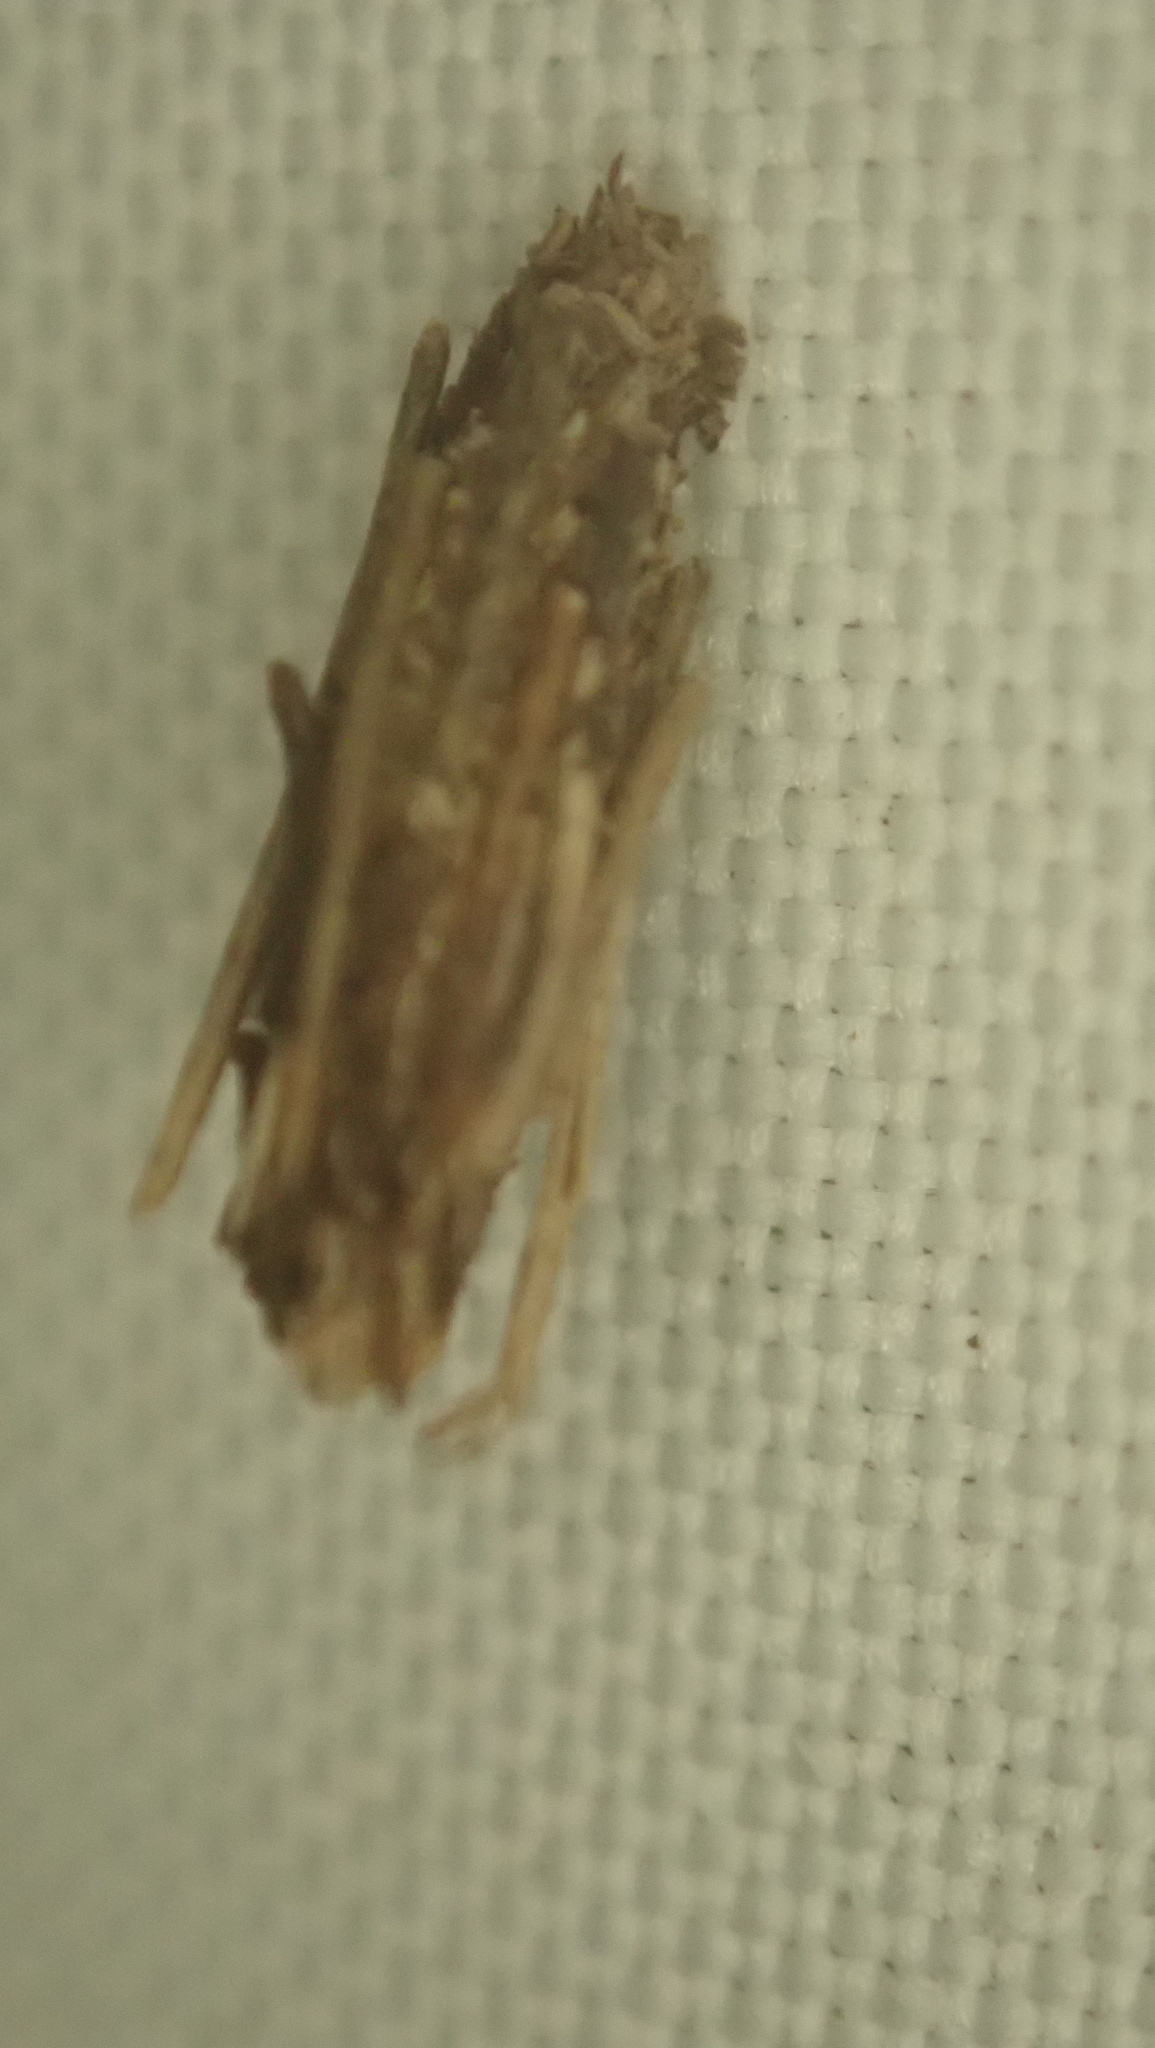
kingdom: Animalia
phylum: Arthropoda
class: Insecta
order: Lepidoptera
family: Psychidae
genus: Psyche
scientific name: Psyche casta
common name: Common sweep
